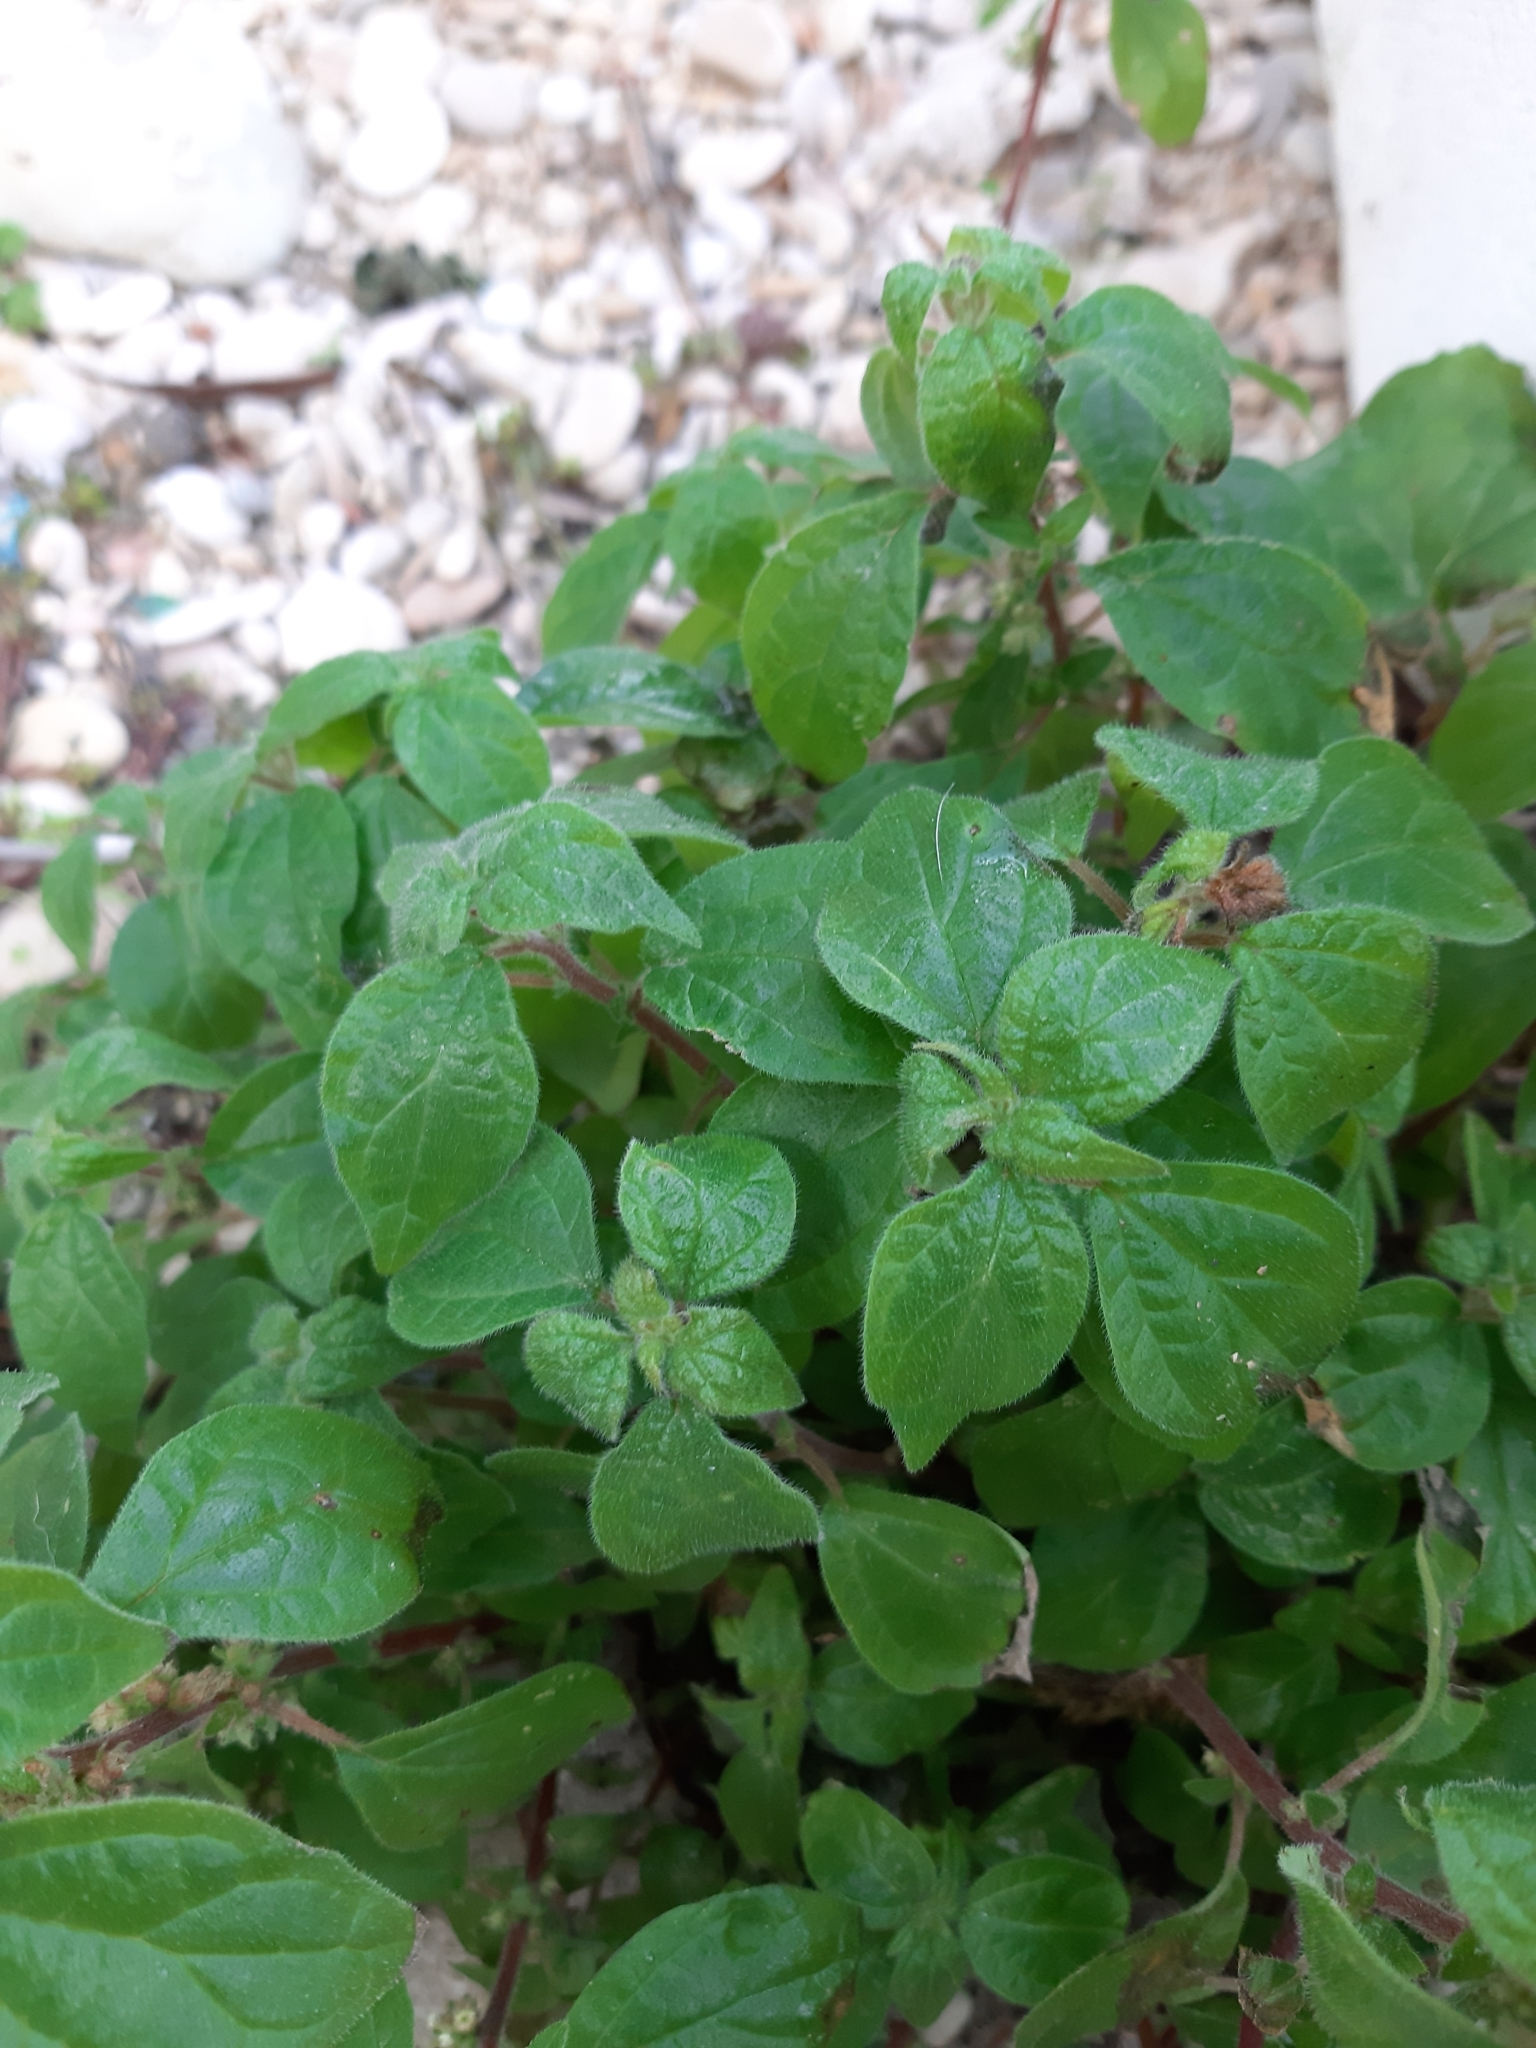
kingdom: Plantae
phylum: Tracheophyta
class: Magnoliopsida
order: Rosales
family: Urticaceae
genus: Parietaria
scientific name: Parietaria judaica
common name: Pellitory-of-the-wall
